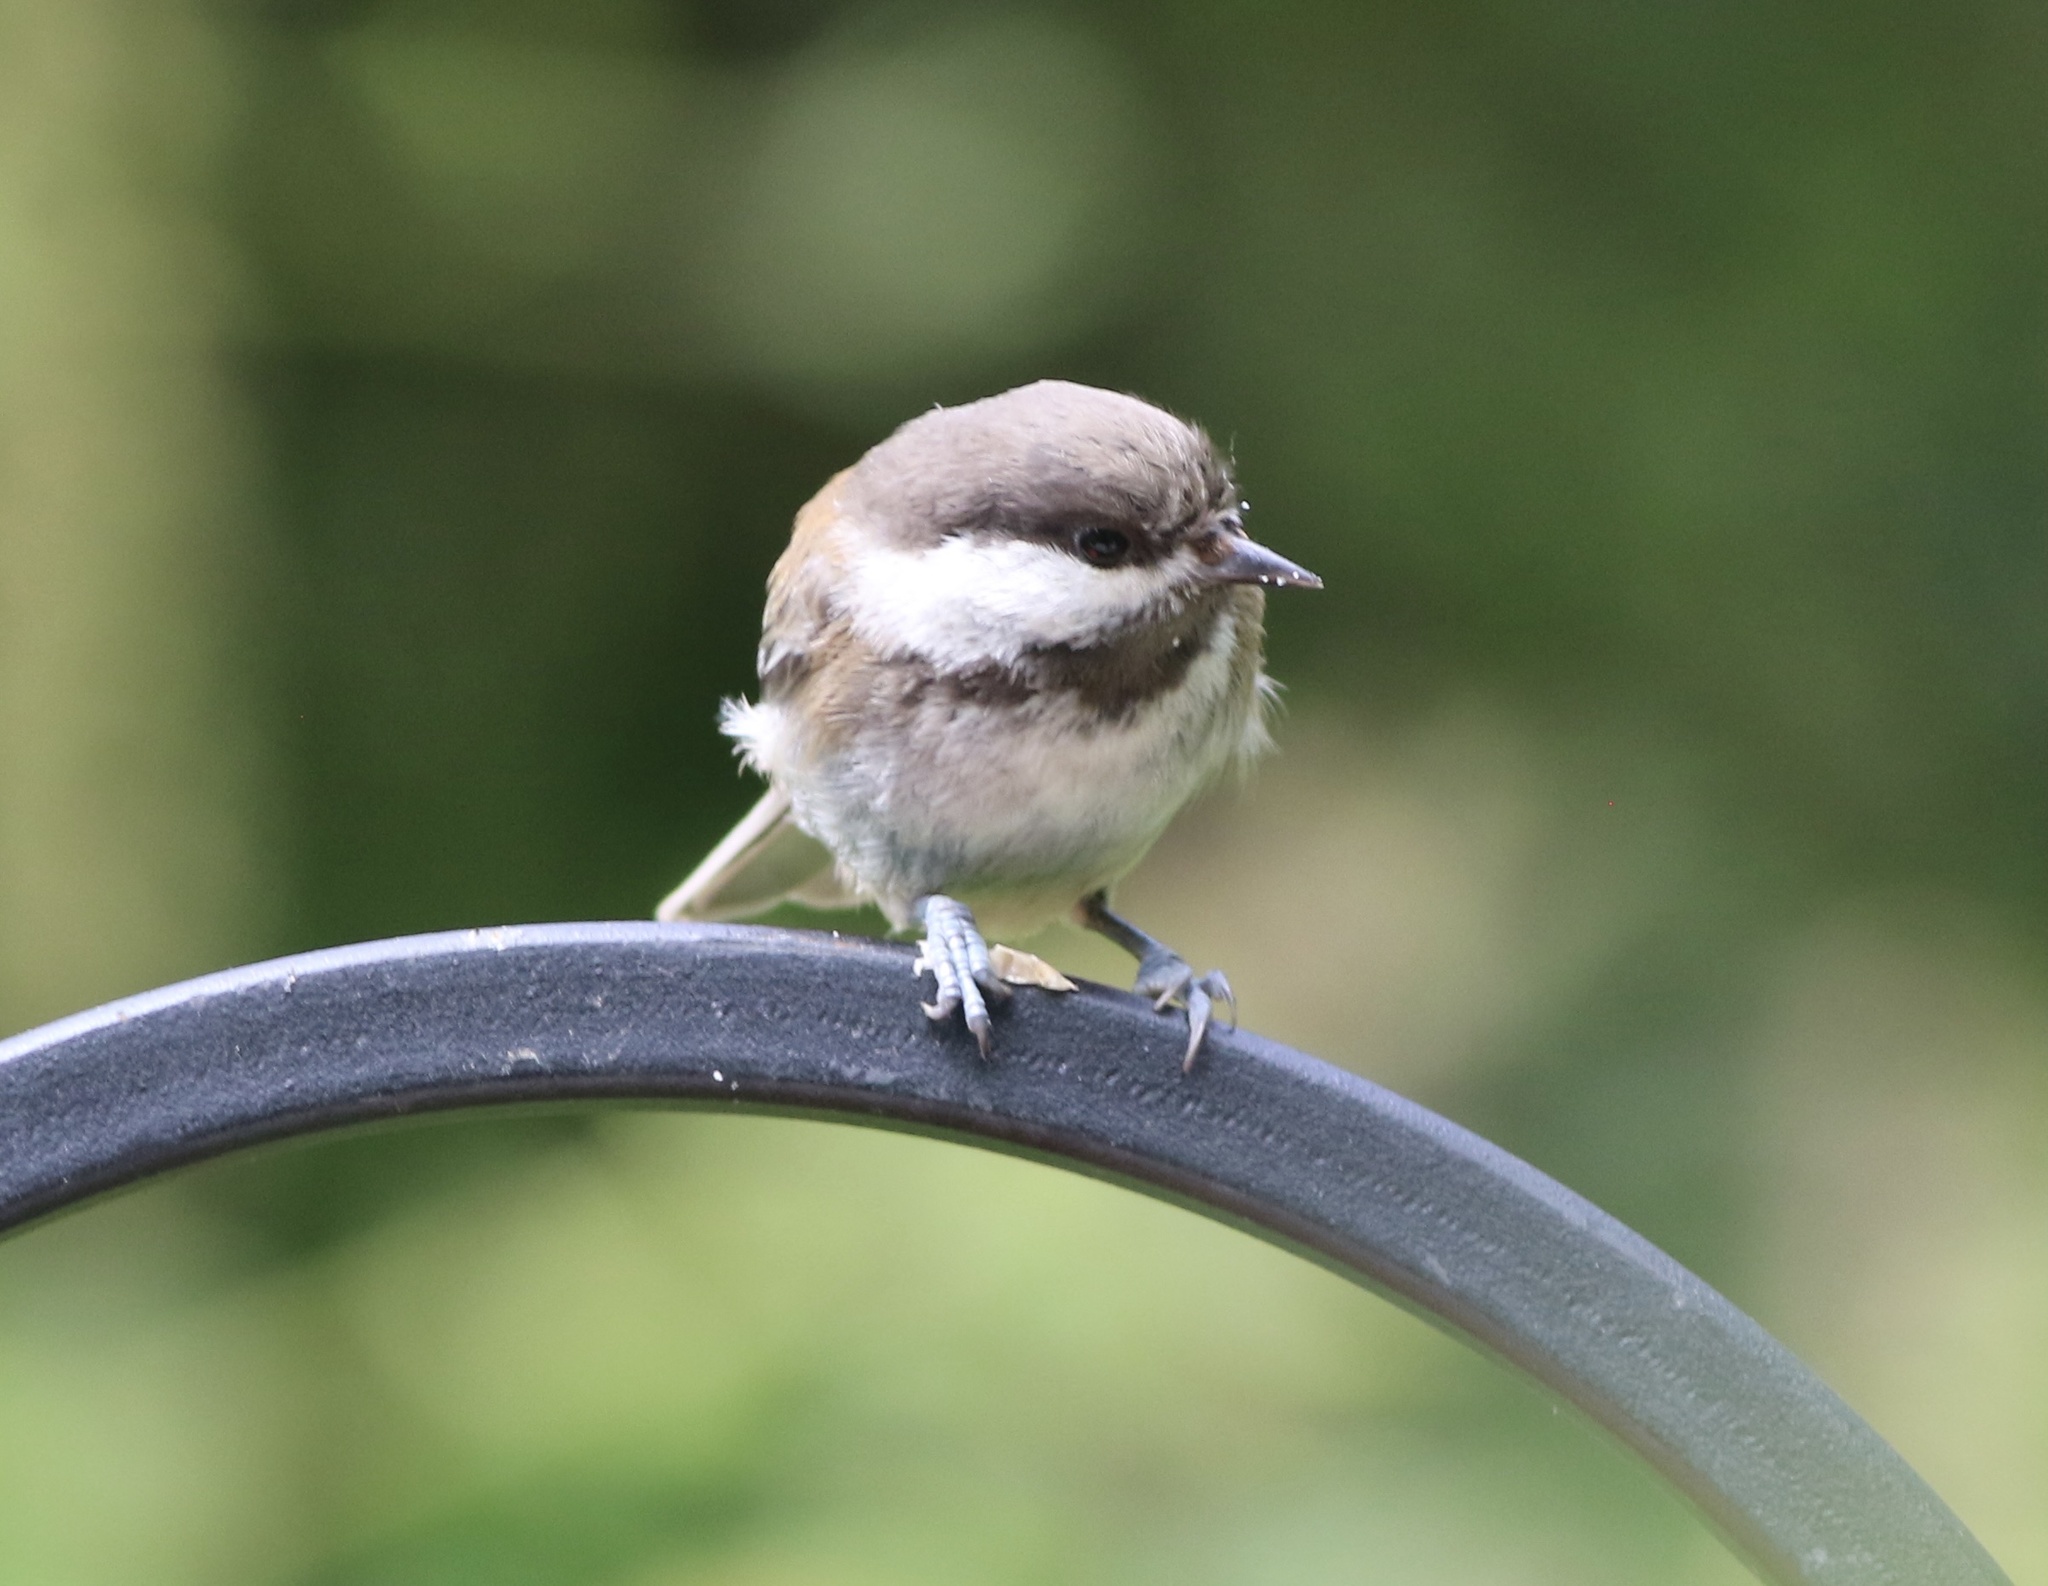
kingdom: Animalia
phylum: Chordata
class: Aves
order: Passeriformes
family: Paridae
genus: Poecile
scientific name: Poecile rufescens
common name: Chestnut-backed chickadee
